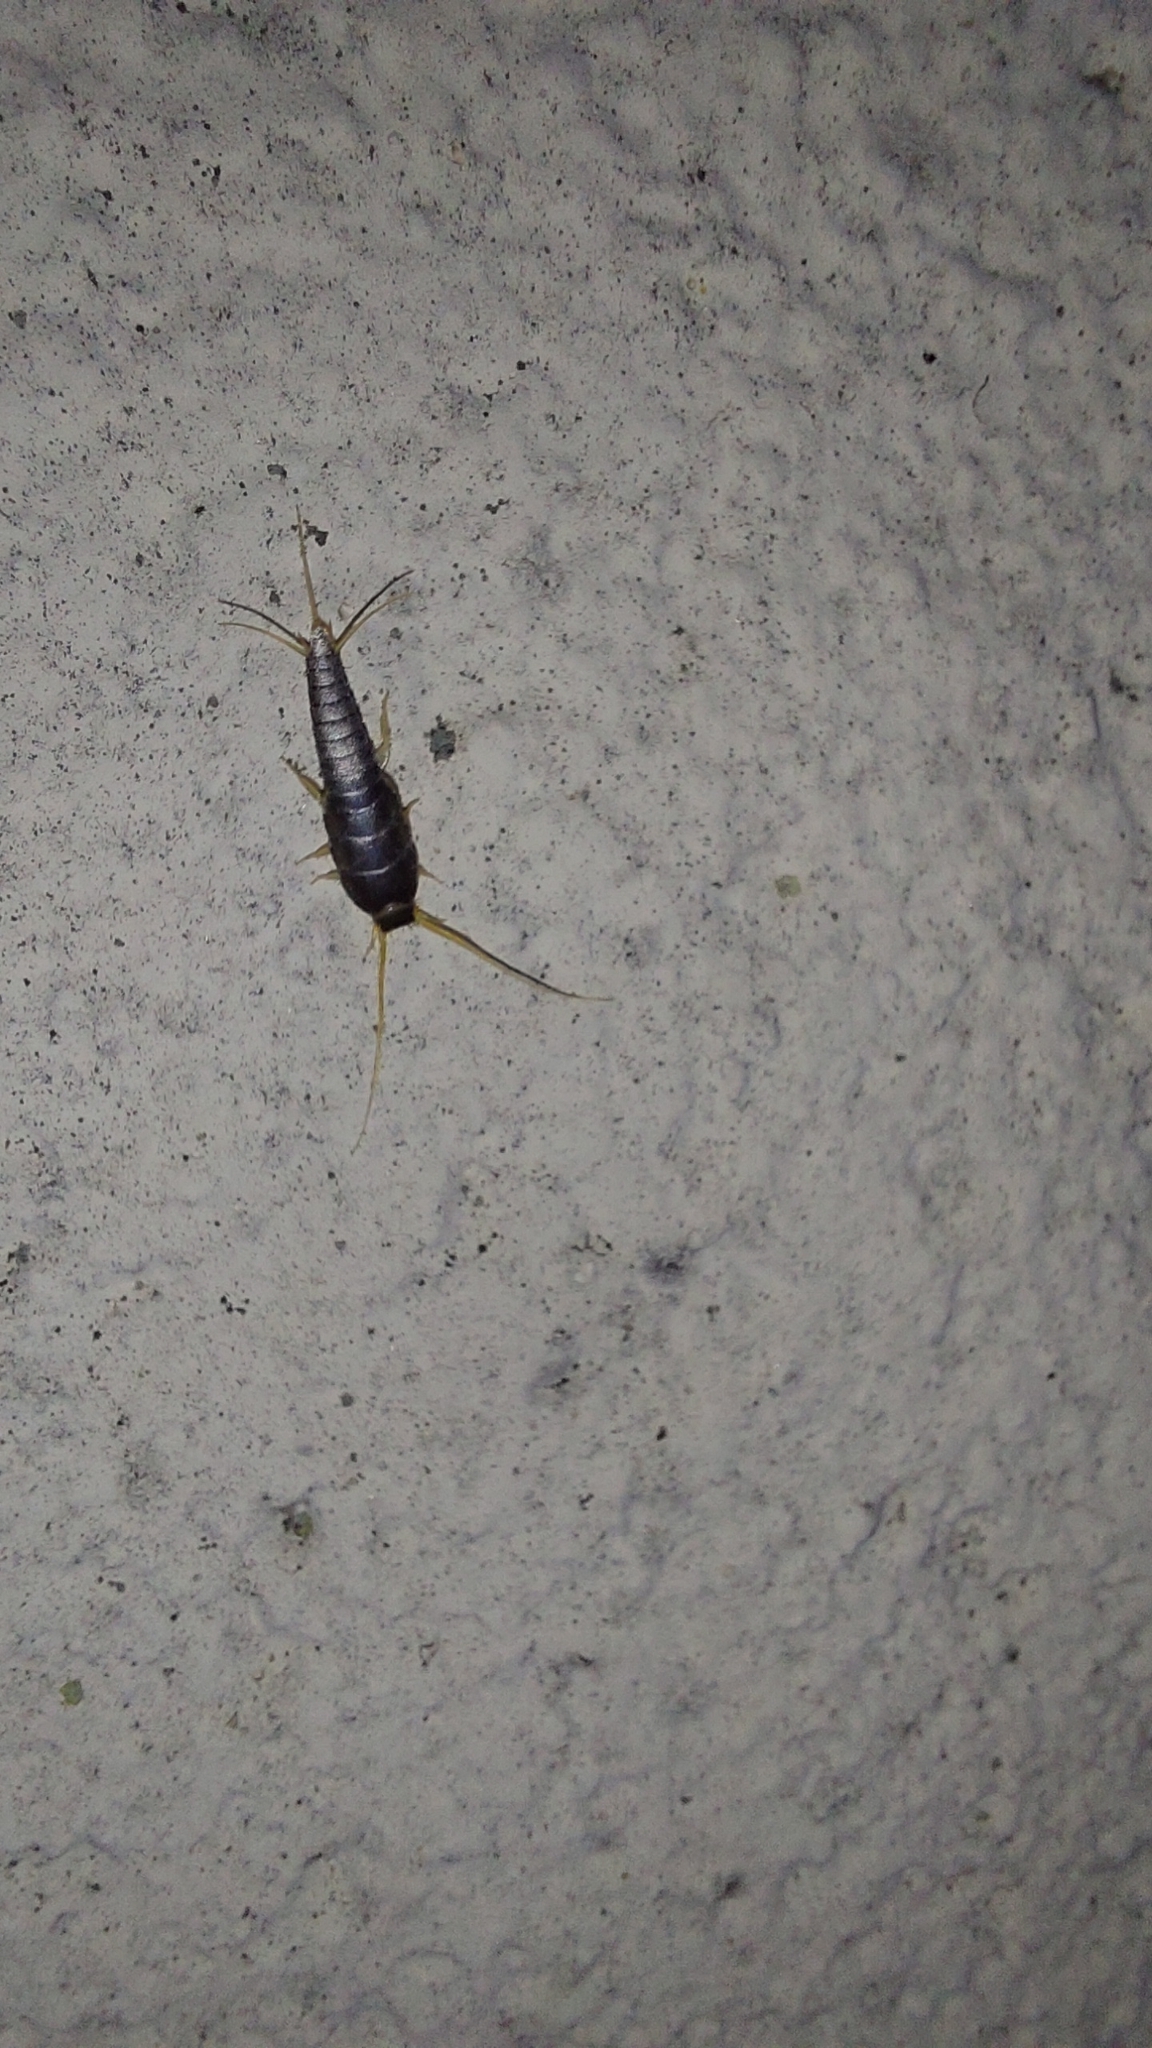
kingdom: Animalia
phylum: Arthropoda
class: Insecta
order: Zygentoma
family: Lepismatidae
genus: Lepisma
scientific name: Lepisma saccharinum
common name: Silverfish
